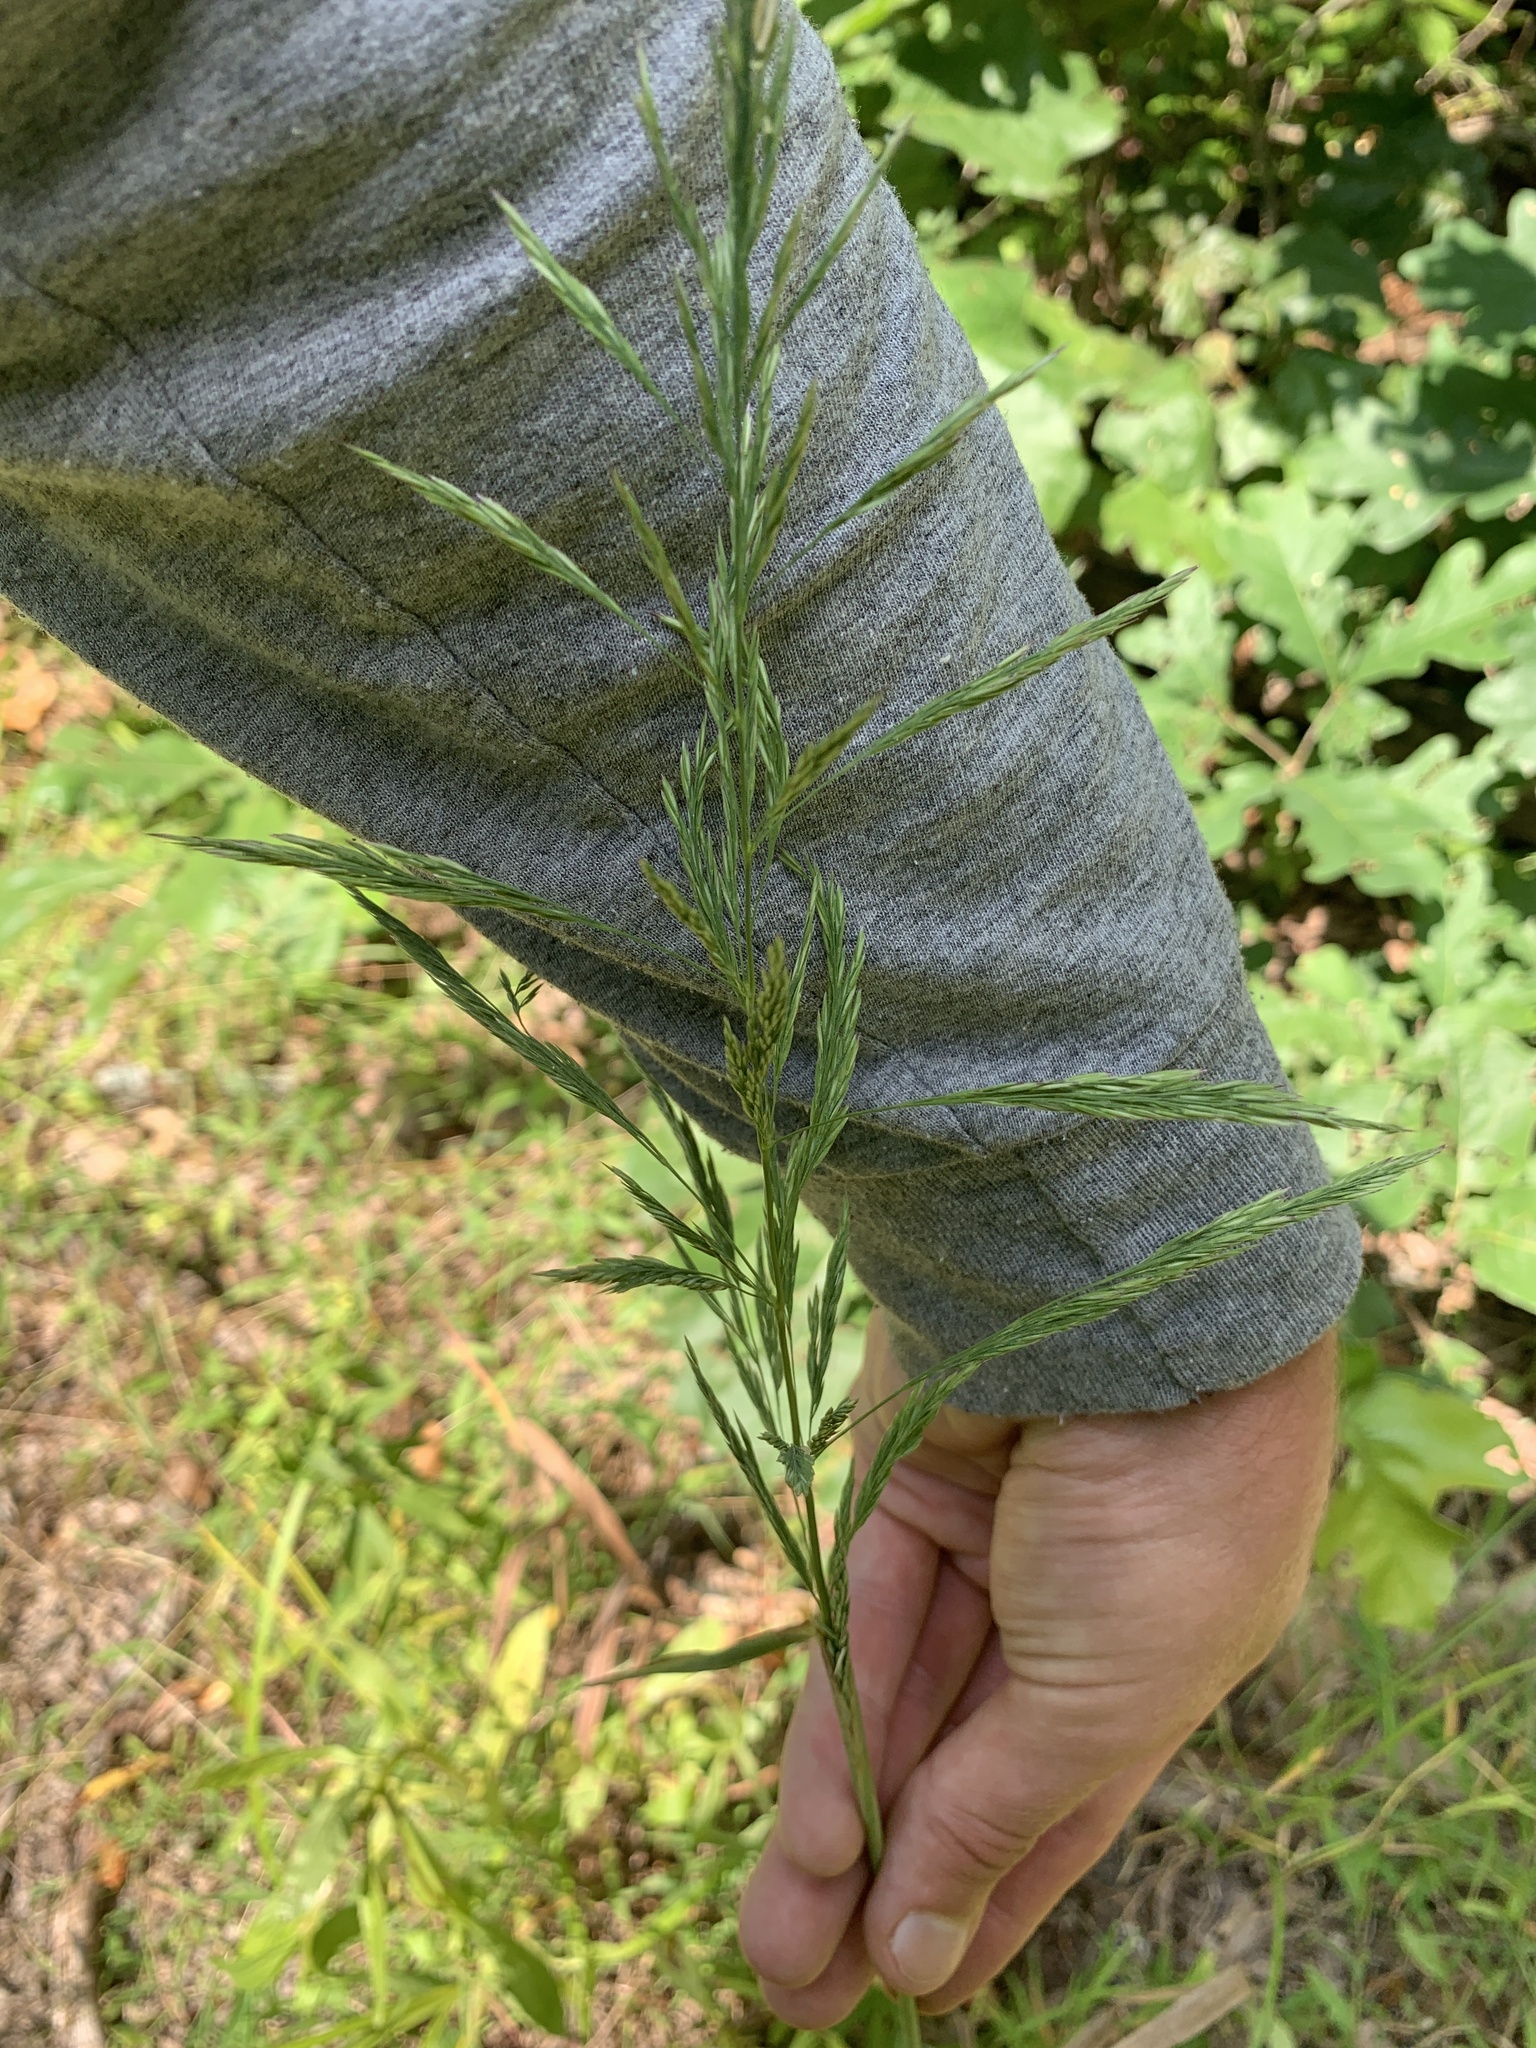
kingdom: Plantae
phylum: Tracheophyta
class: Liliopsida
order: Poales
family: Poaceae
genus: Cinna
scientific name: Cinna arundinacea
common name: Stout woodreed
